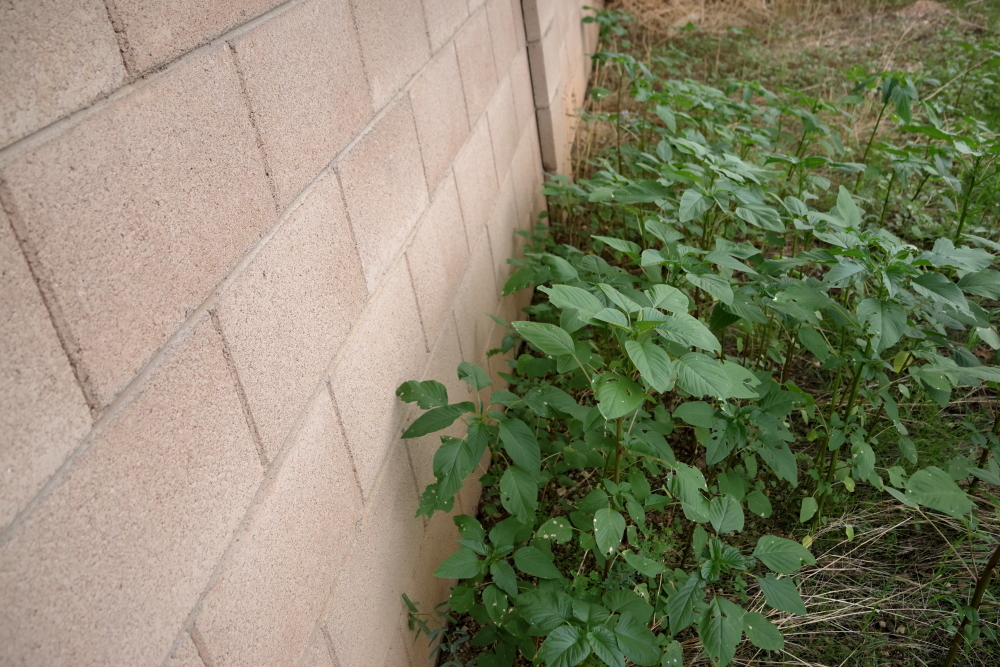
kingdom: Plantae
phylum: Tracheophyta
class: Magnoliopsida
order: Caryophyllales
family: Amaranthaceae
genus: Amaranthus
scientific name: Amaranthus palmeri
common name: Dioecious amaranth
